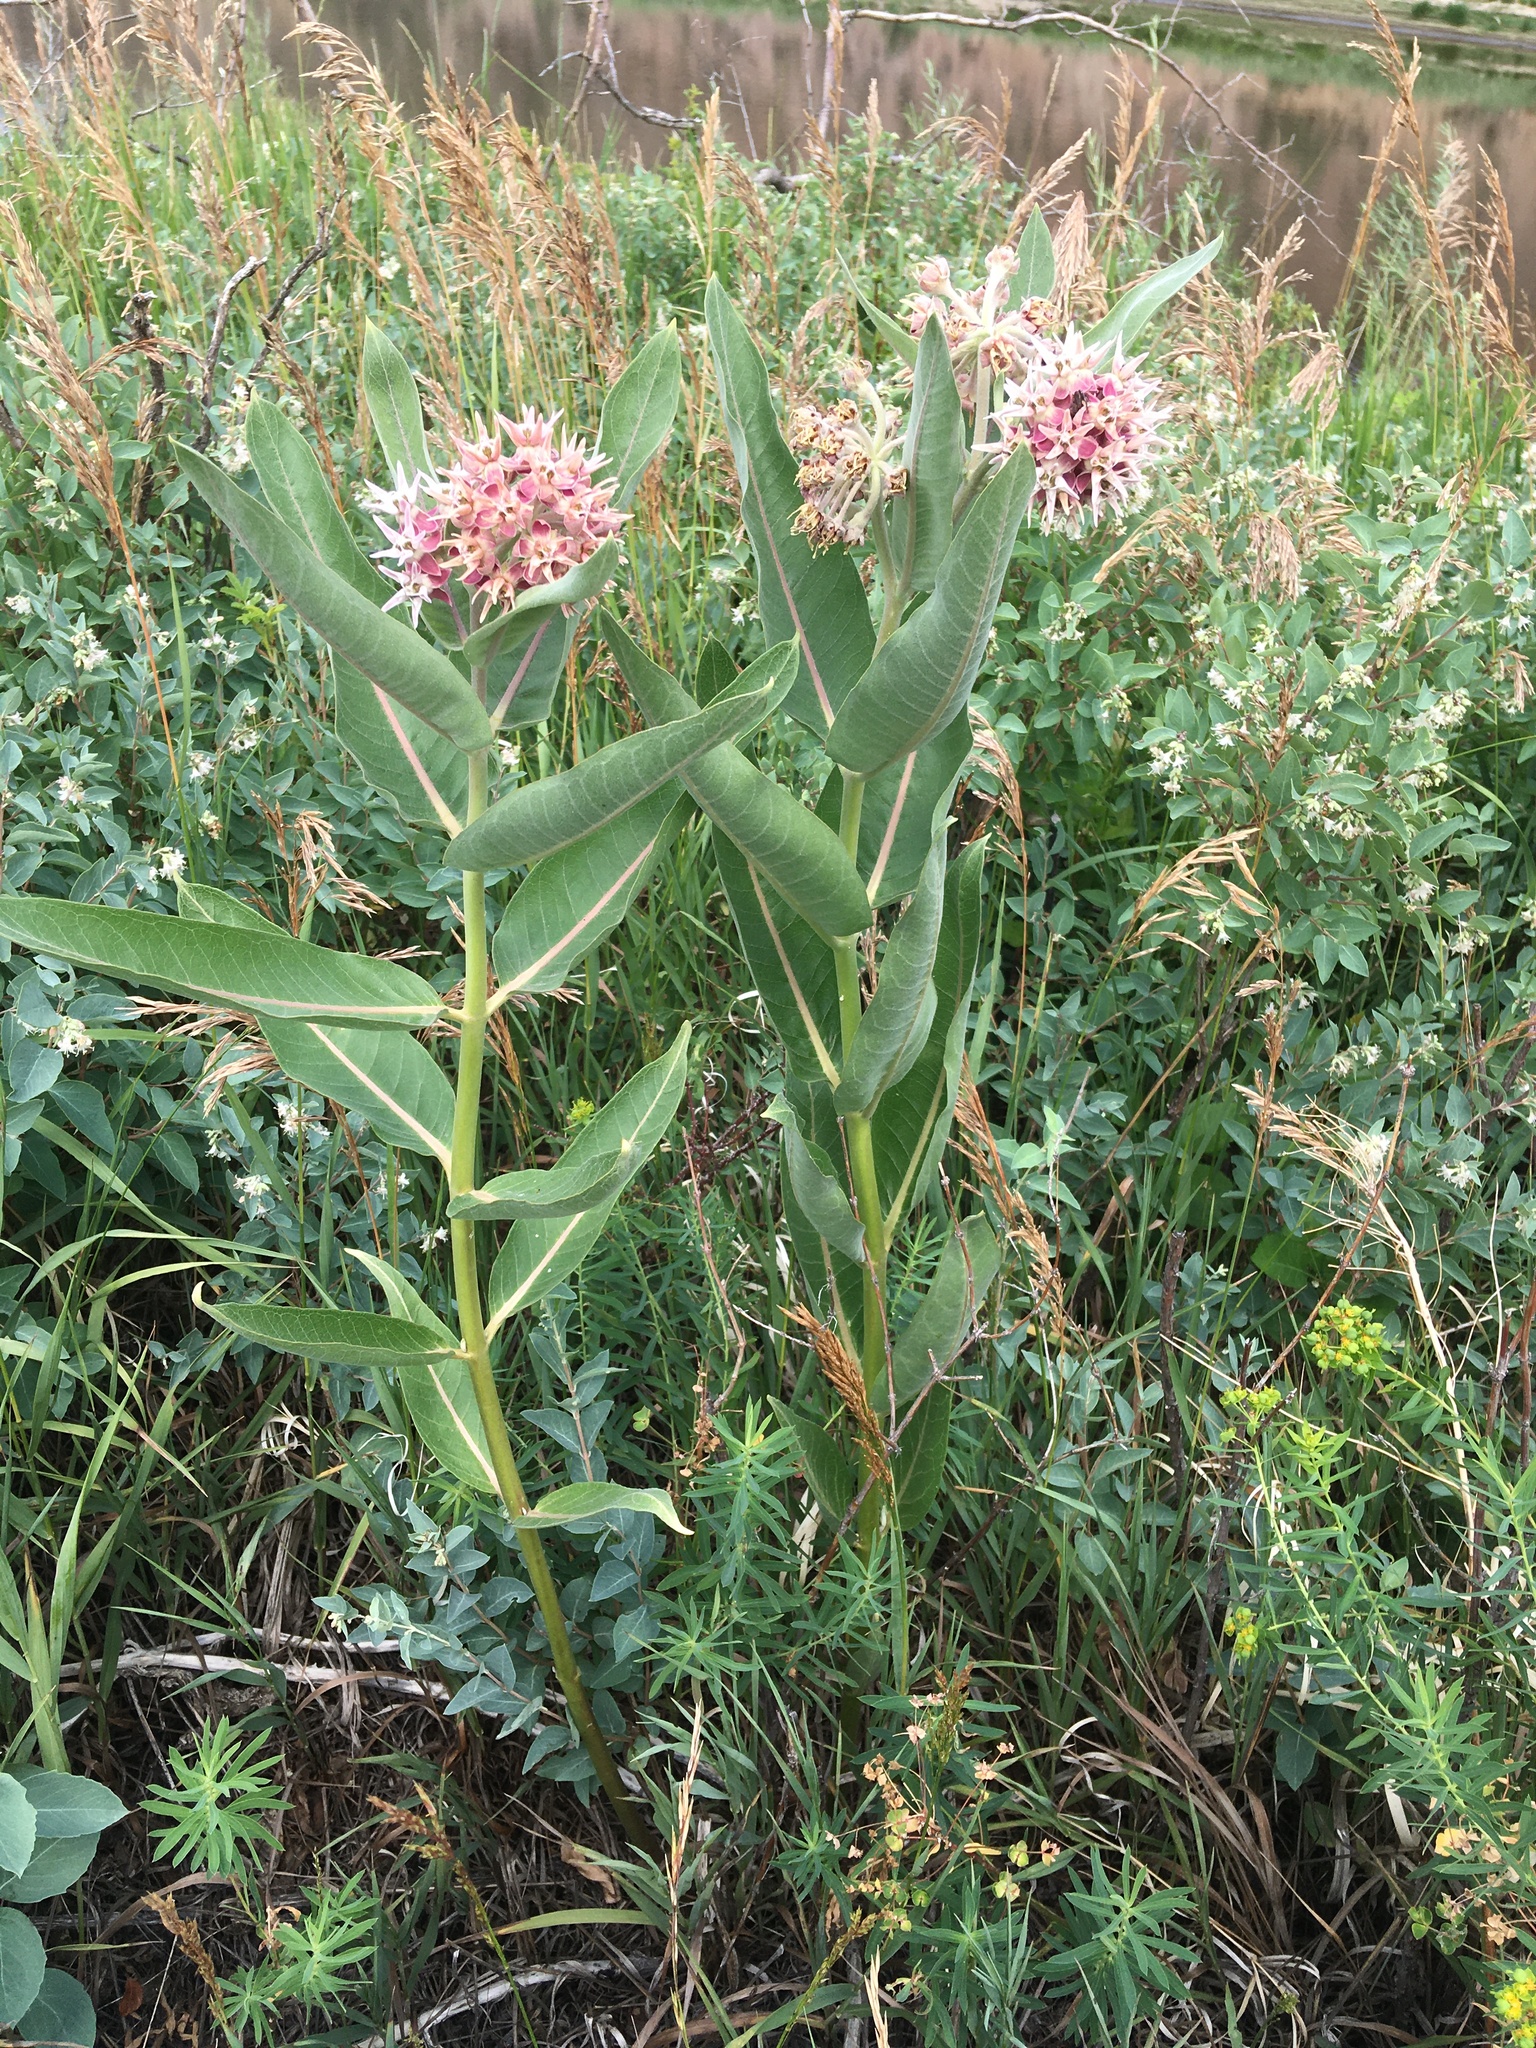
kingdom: Plantae
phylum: Tracheophyta
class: Magnoliopsida
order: Gentianales
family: Apocynaceae
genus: Asclepias
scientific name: Asclepias speciosa
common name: Showy milkweed
